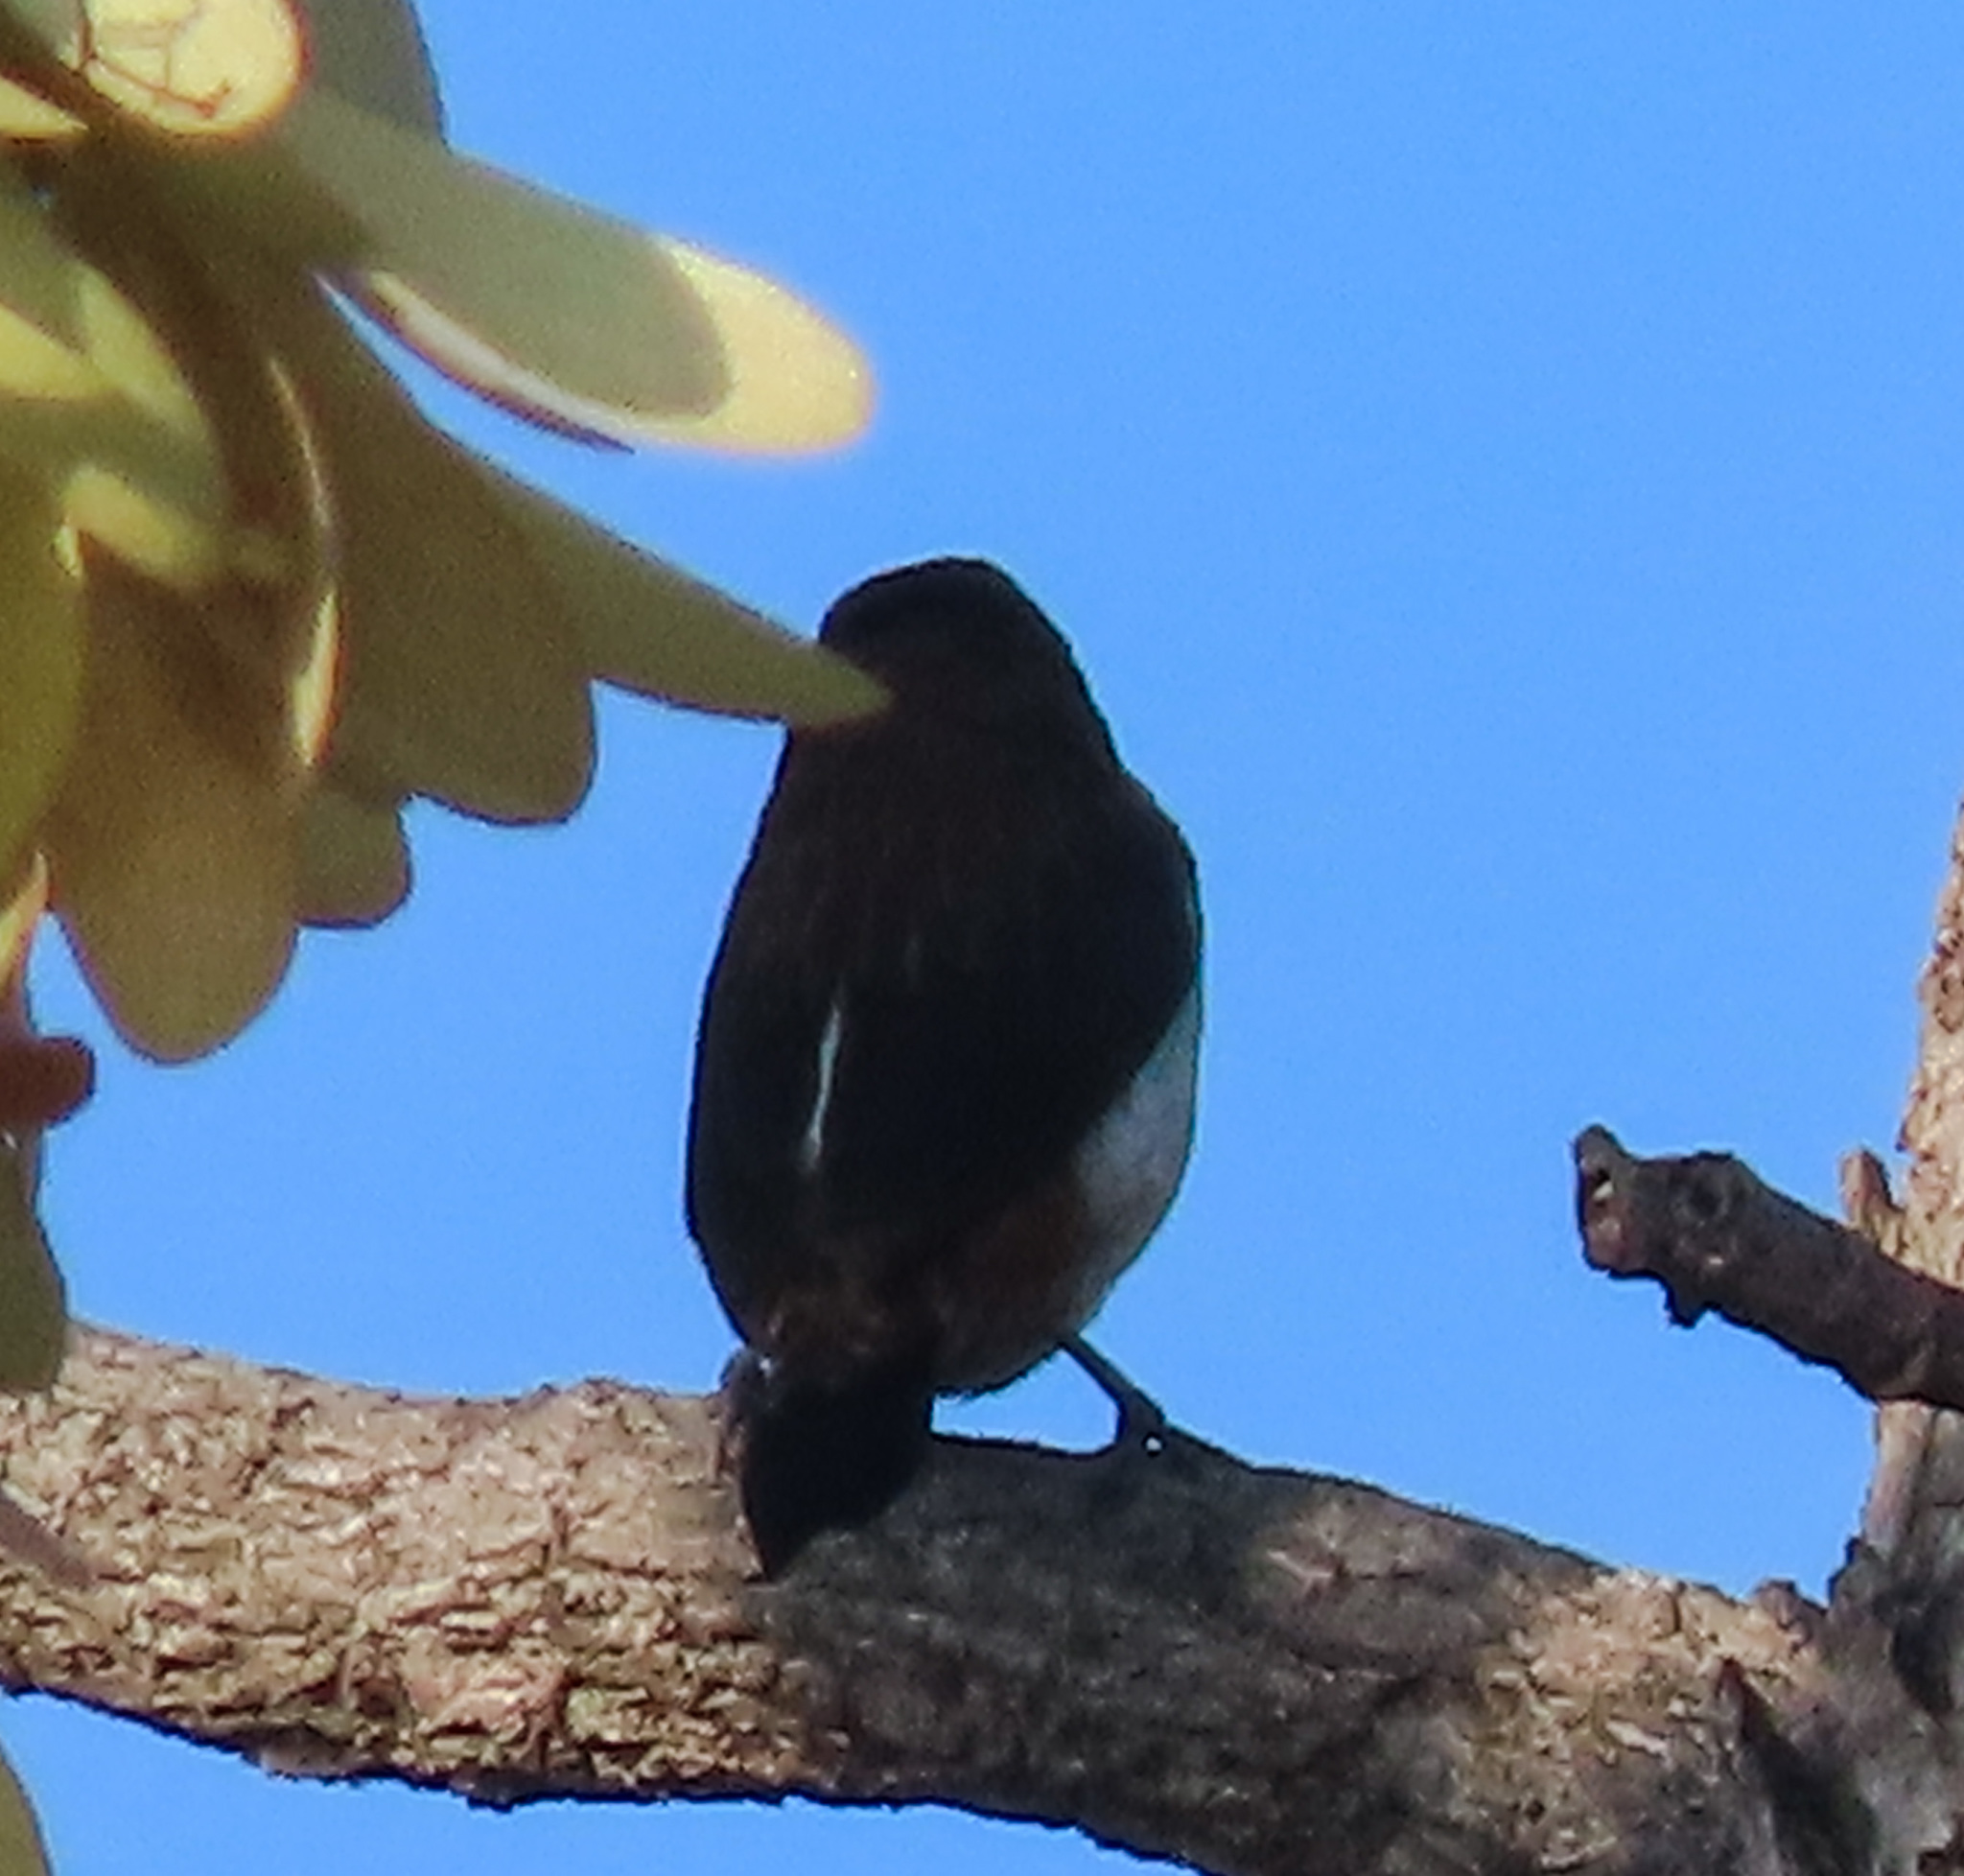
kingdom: Animalia
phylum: Chordata
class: Aves
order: Passeriformes
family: Estrildidae
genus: Lonchura
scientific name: Lonchura striata
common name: White-rumped munia
